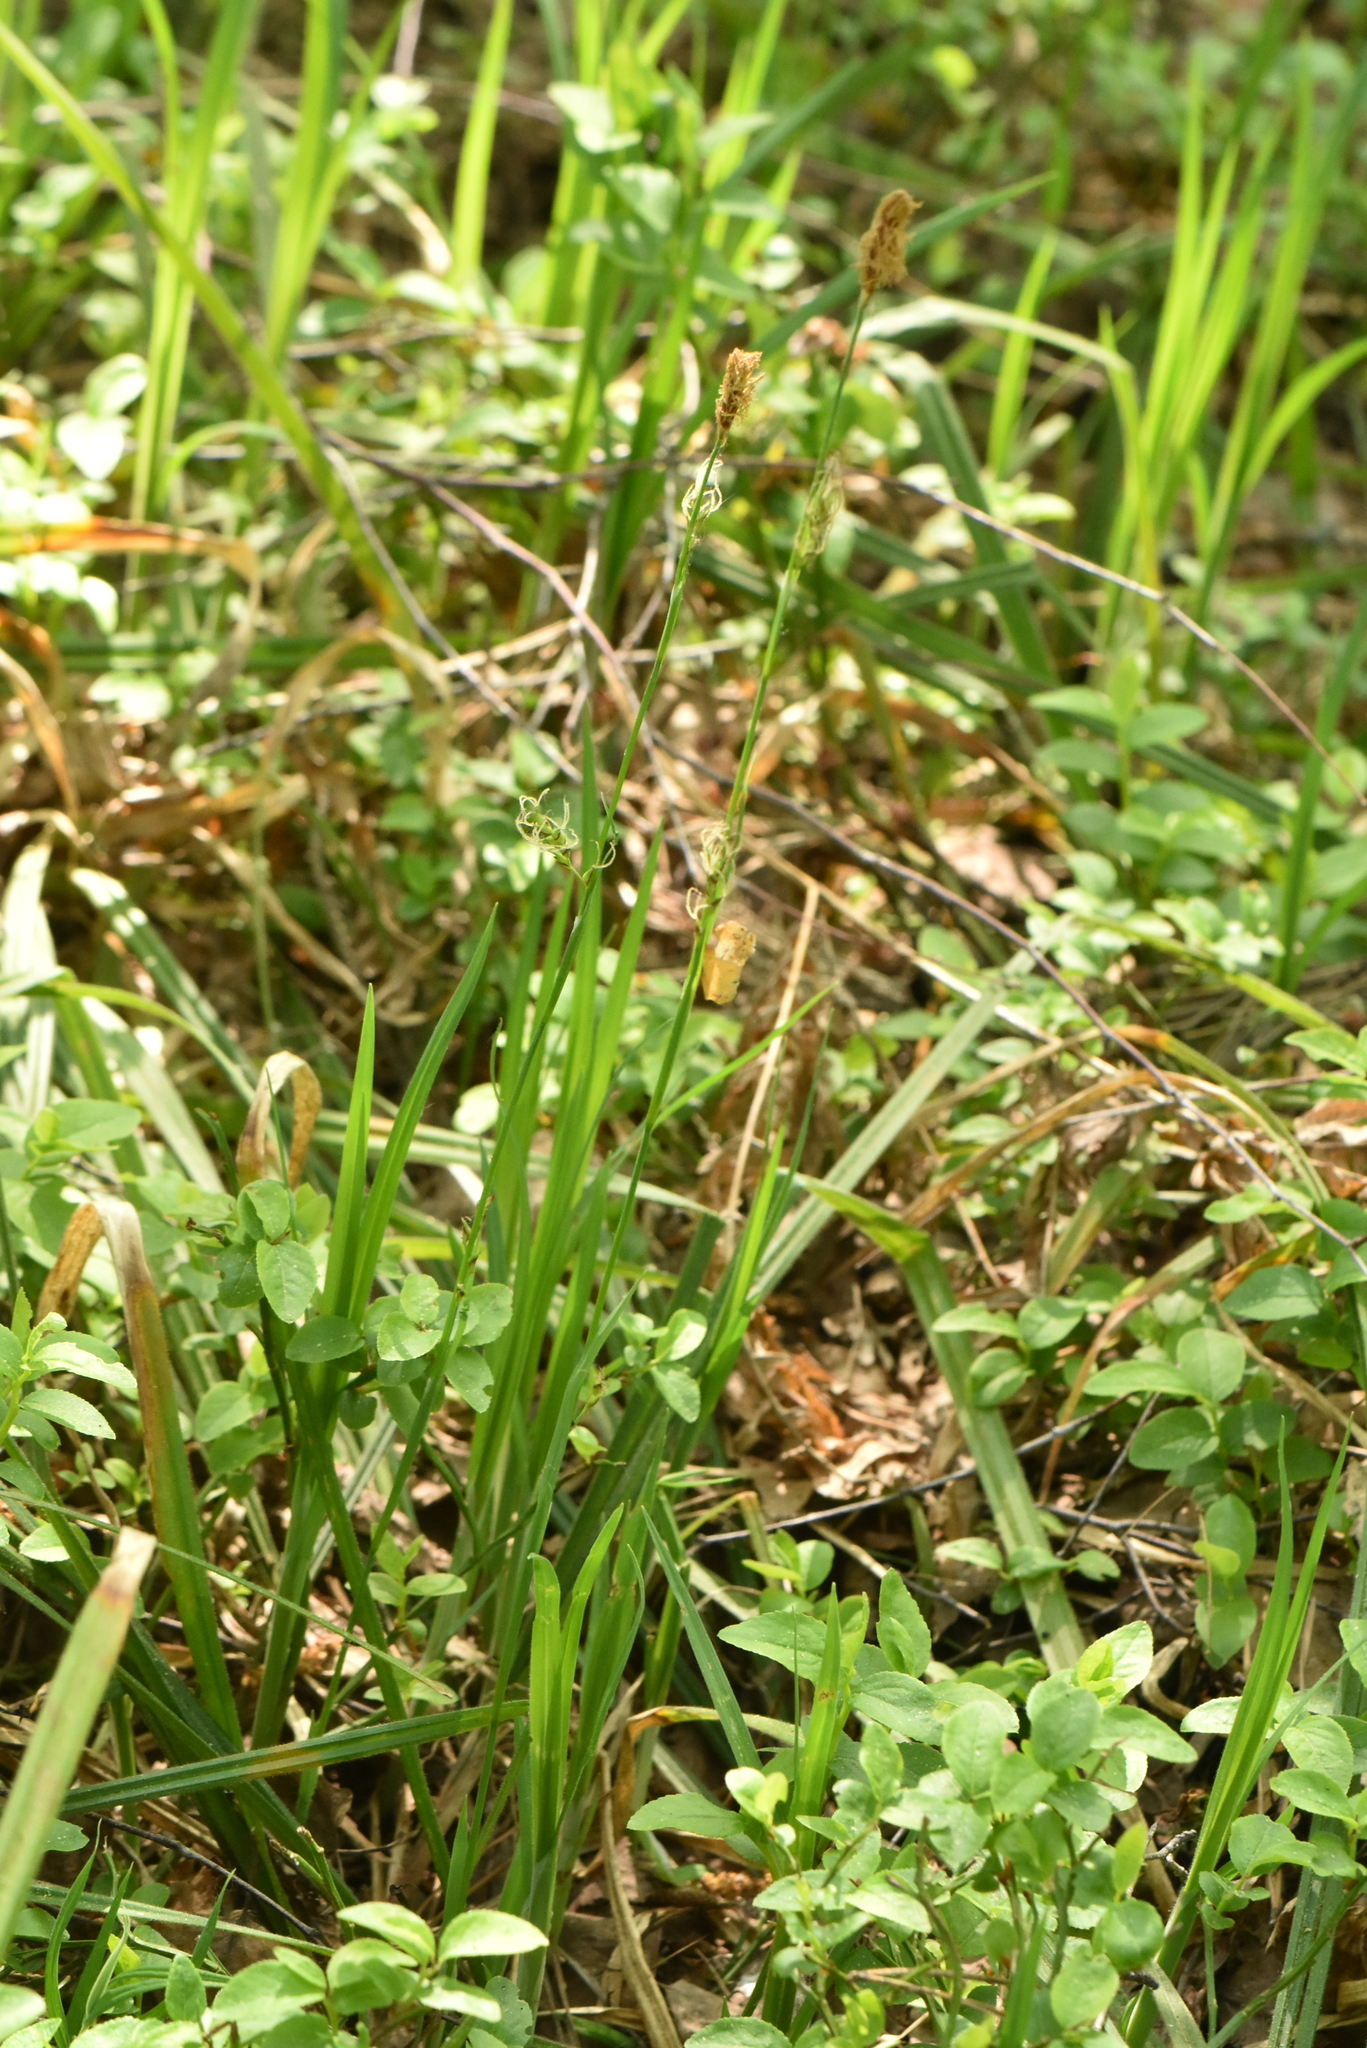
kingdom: Plantae
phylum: Tracheophyta
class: Liliopsida
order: Poales
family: Cyperaceae
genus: Carex
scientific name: Carex pilosa
